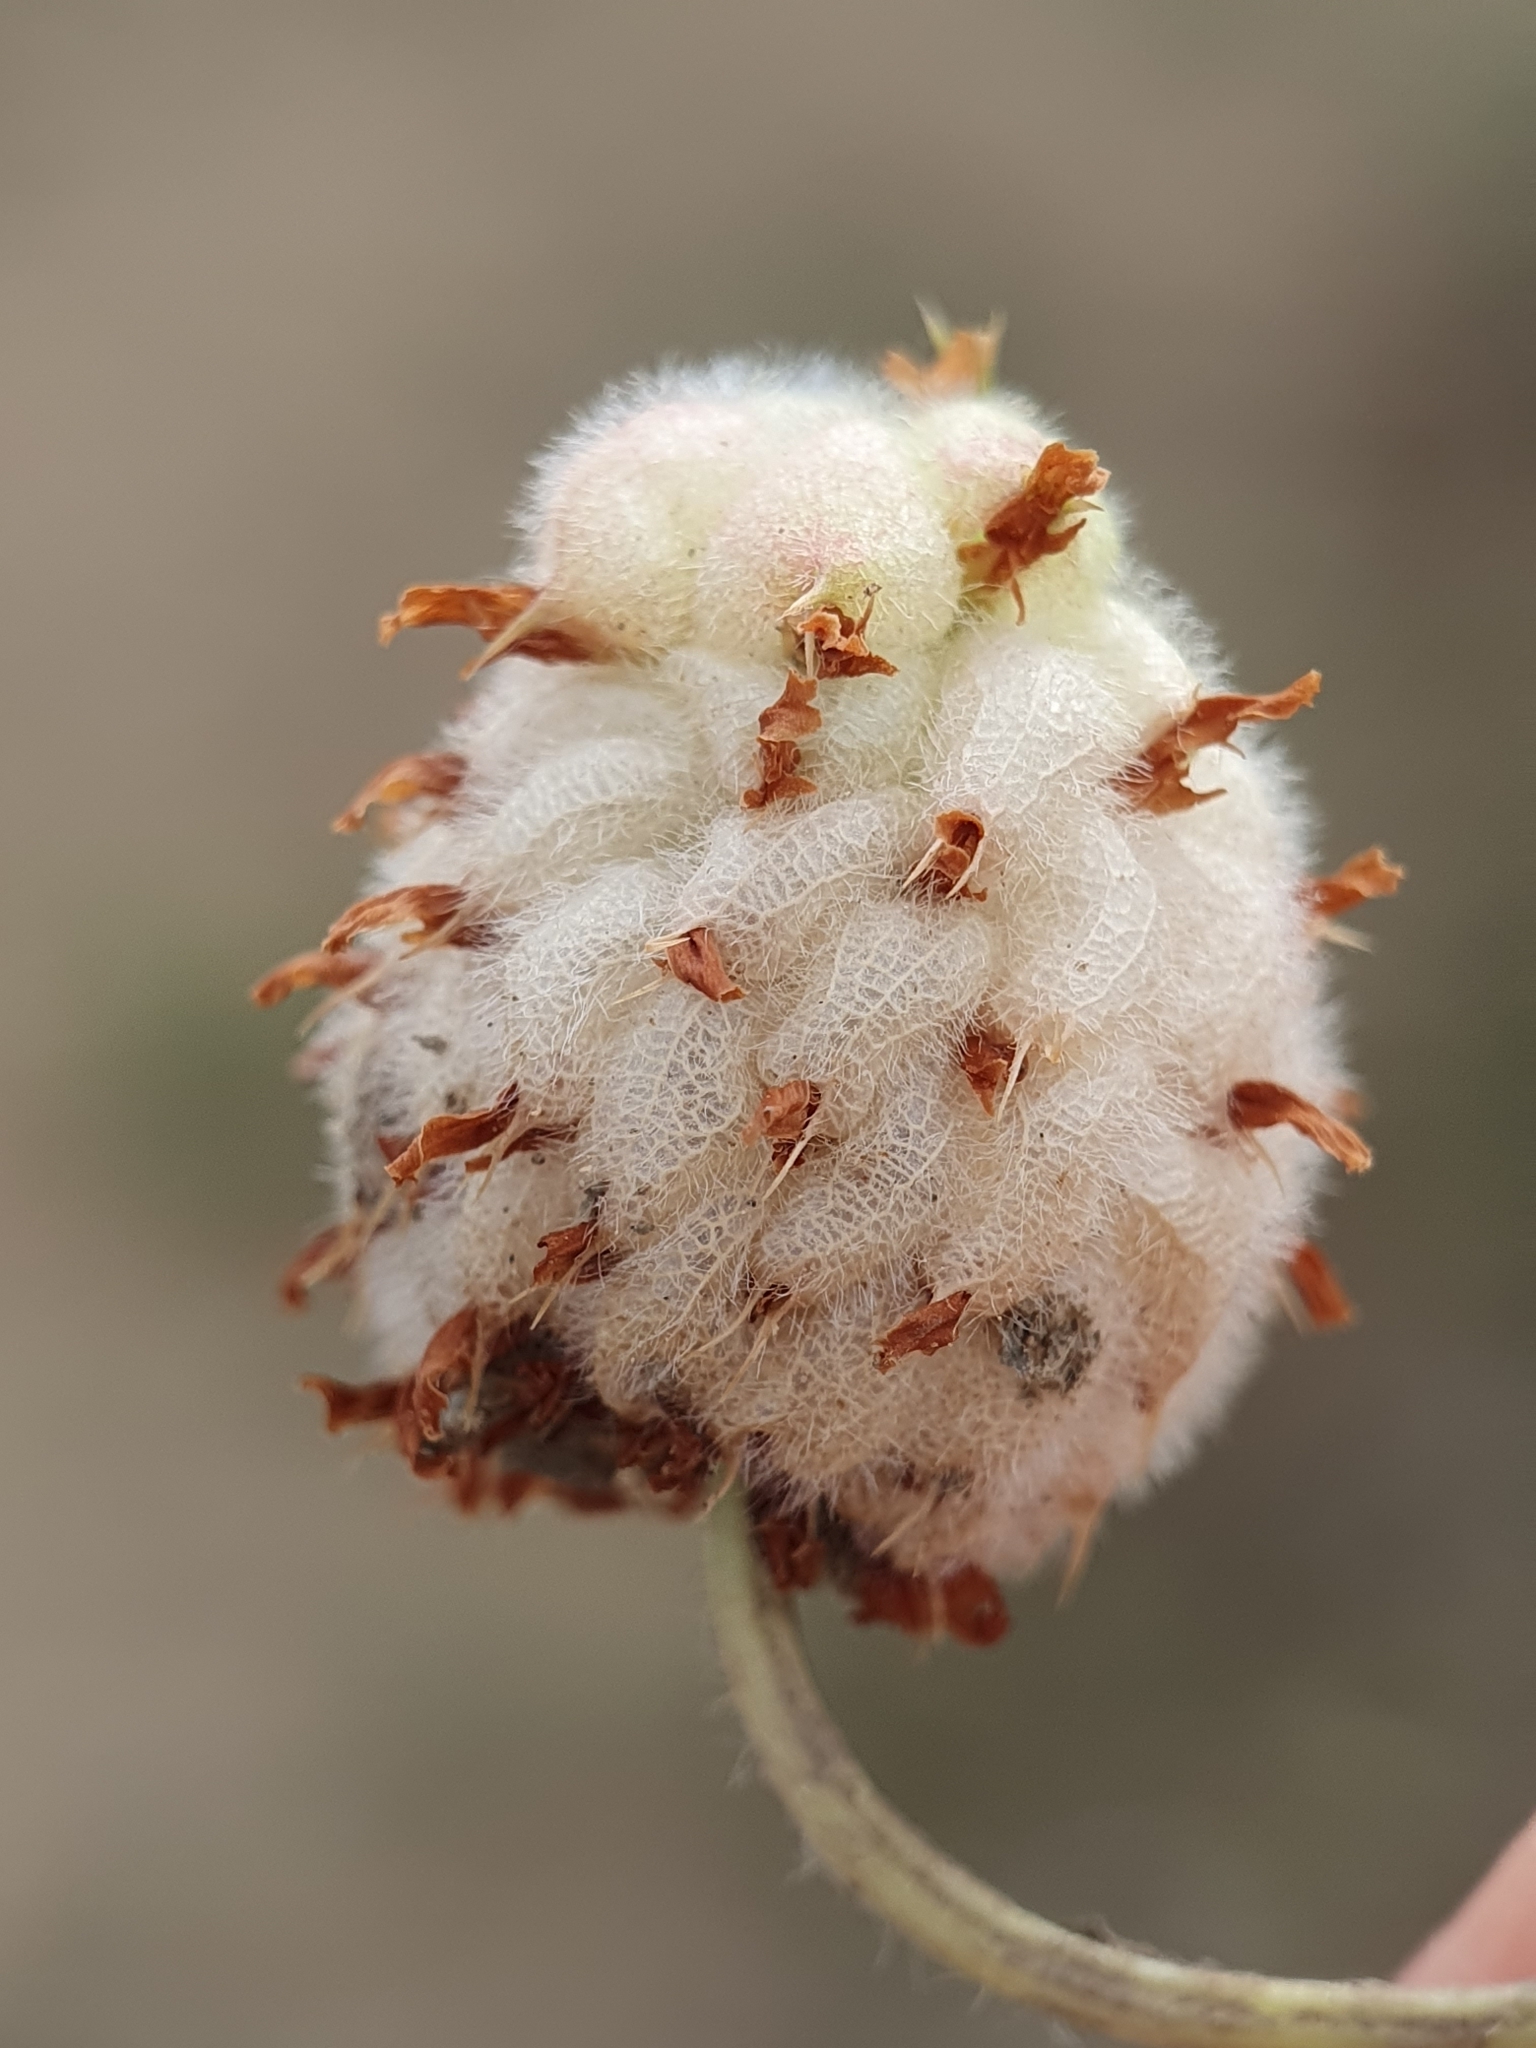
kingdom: Plantae
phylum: Tracheophyta
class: Magnoliopsida
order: Fabales
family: Fabaceae
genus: Trifolium
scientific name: Trifolium fragiferum
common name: Strawberry clover
